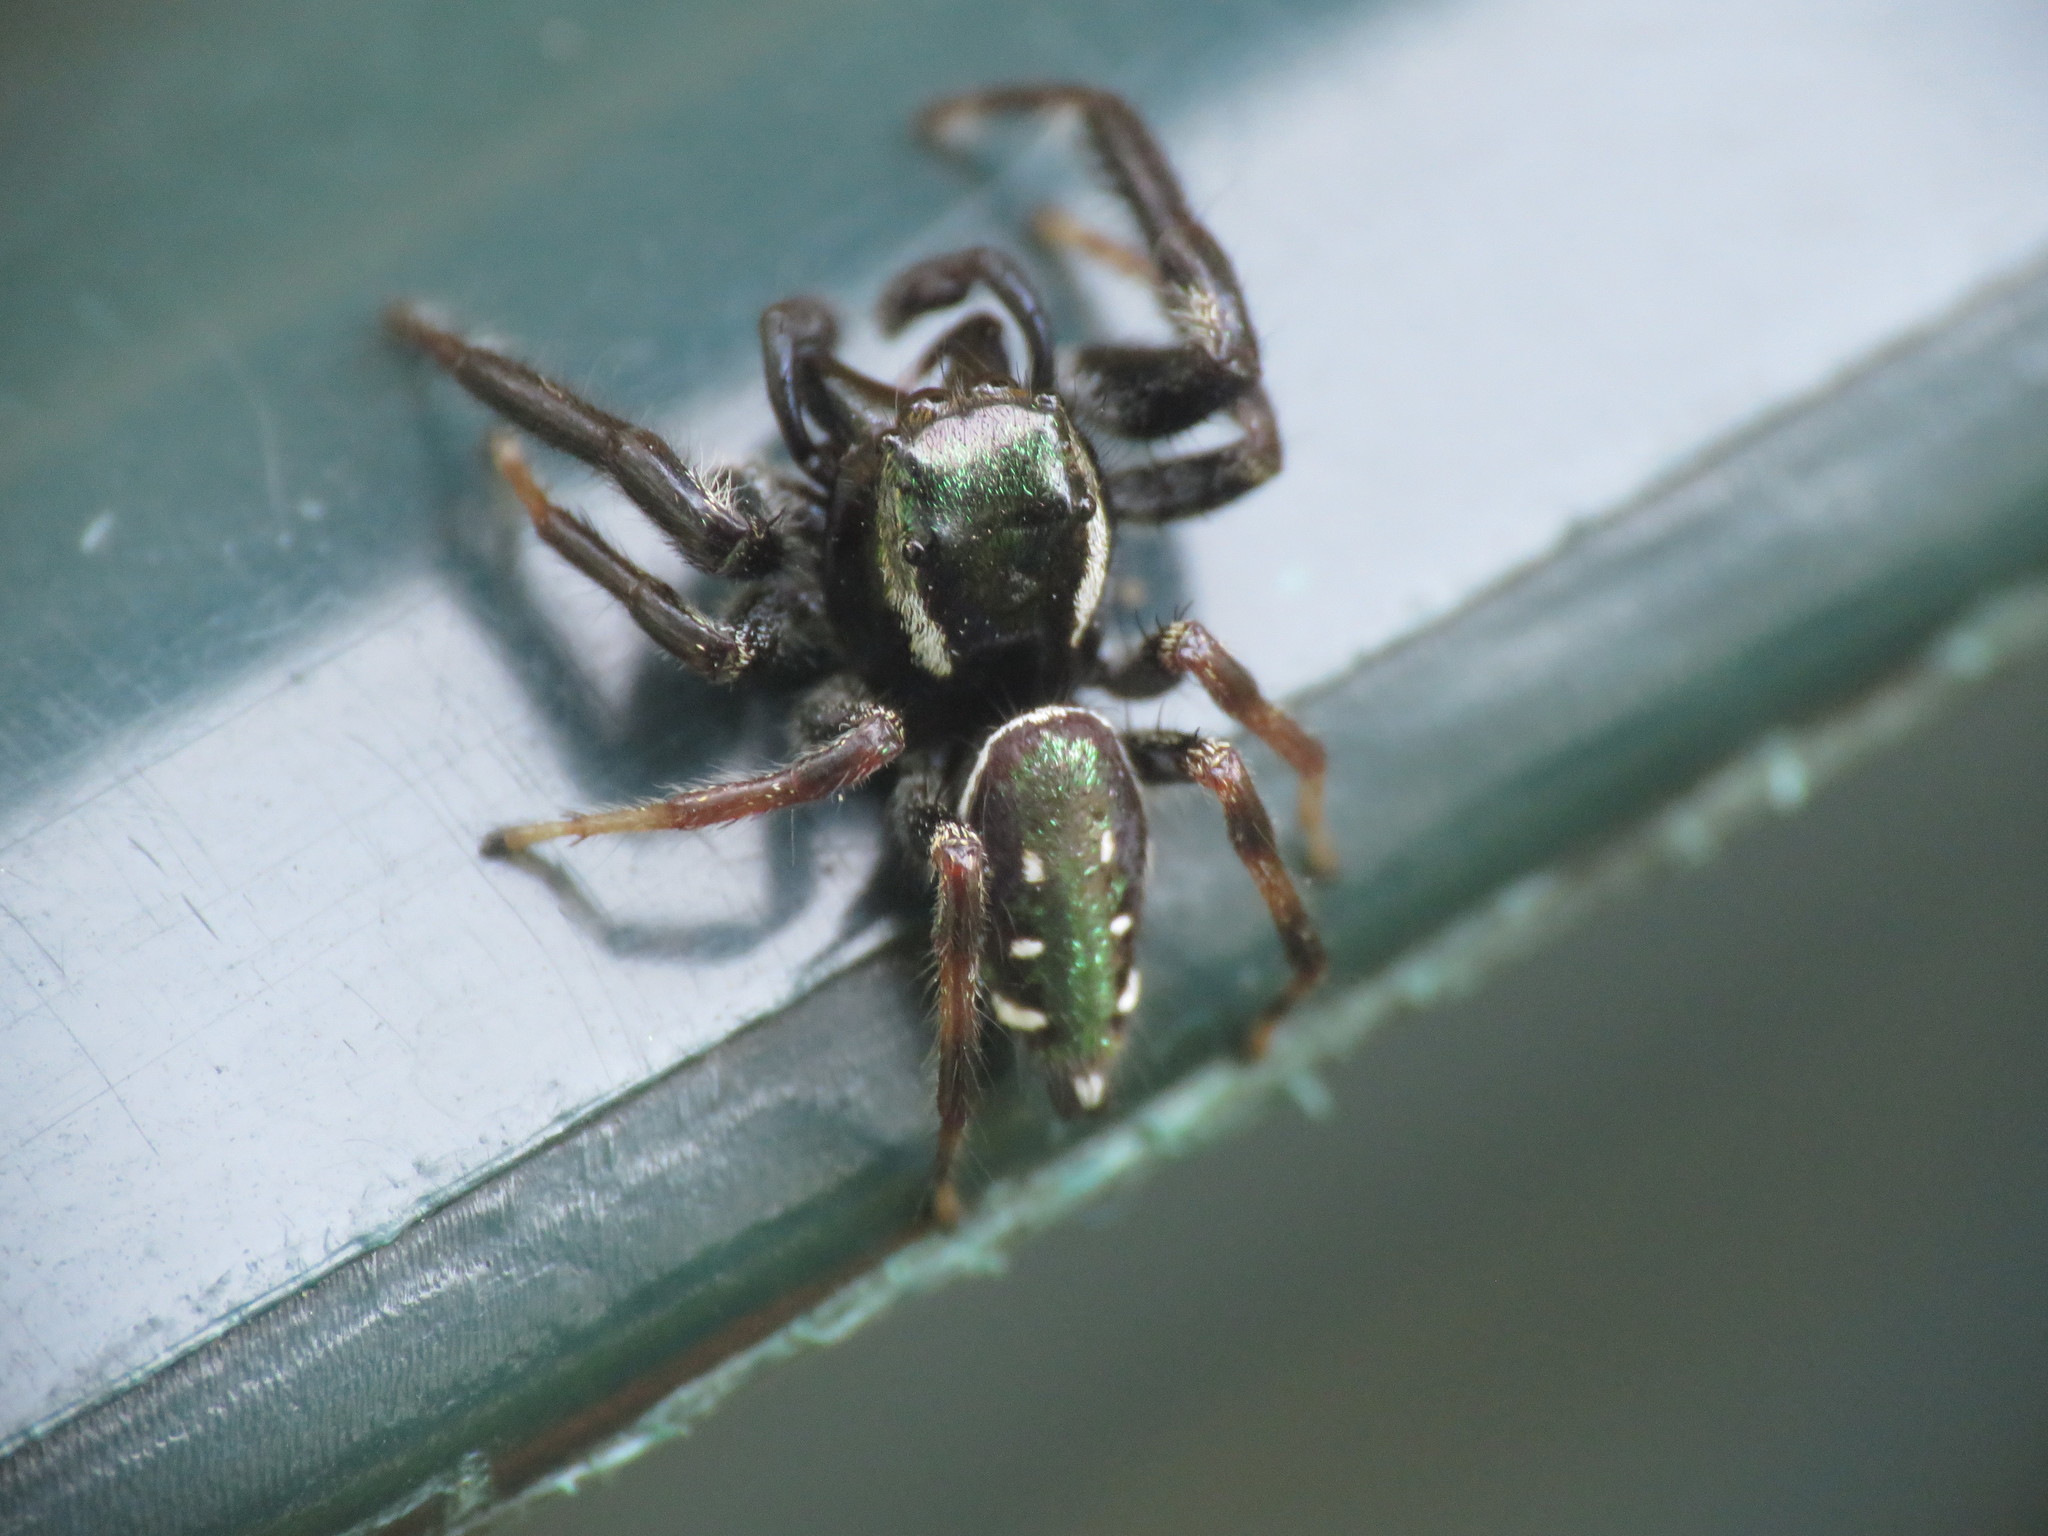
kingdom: Animalia
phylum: Arthropoda
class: Arachnida
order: Araneae
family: Salticidae
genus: Paraphidippus
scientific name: Paraphidippus aurantius
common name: Jumping spiders
